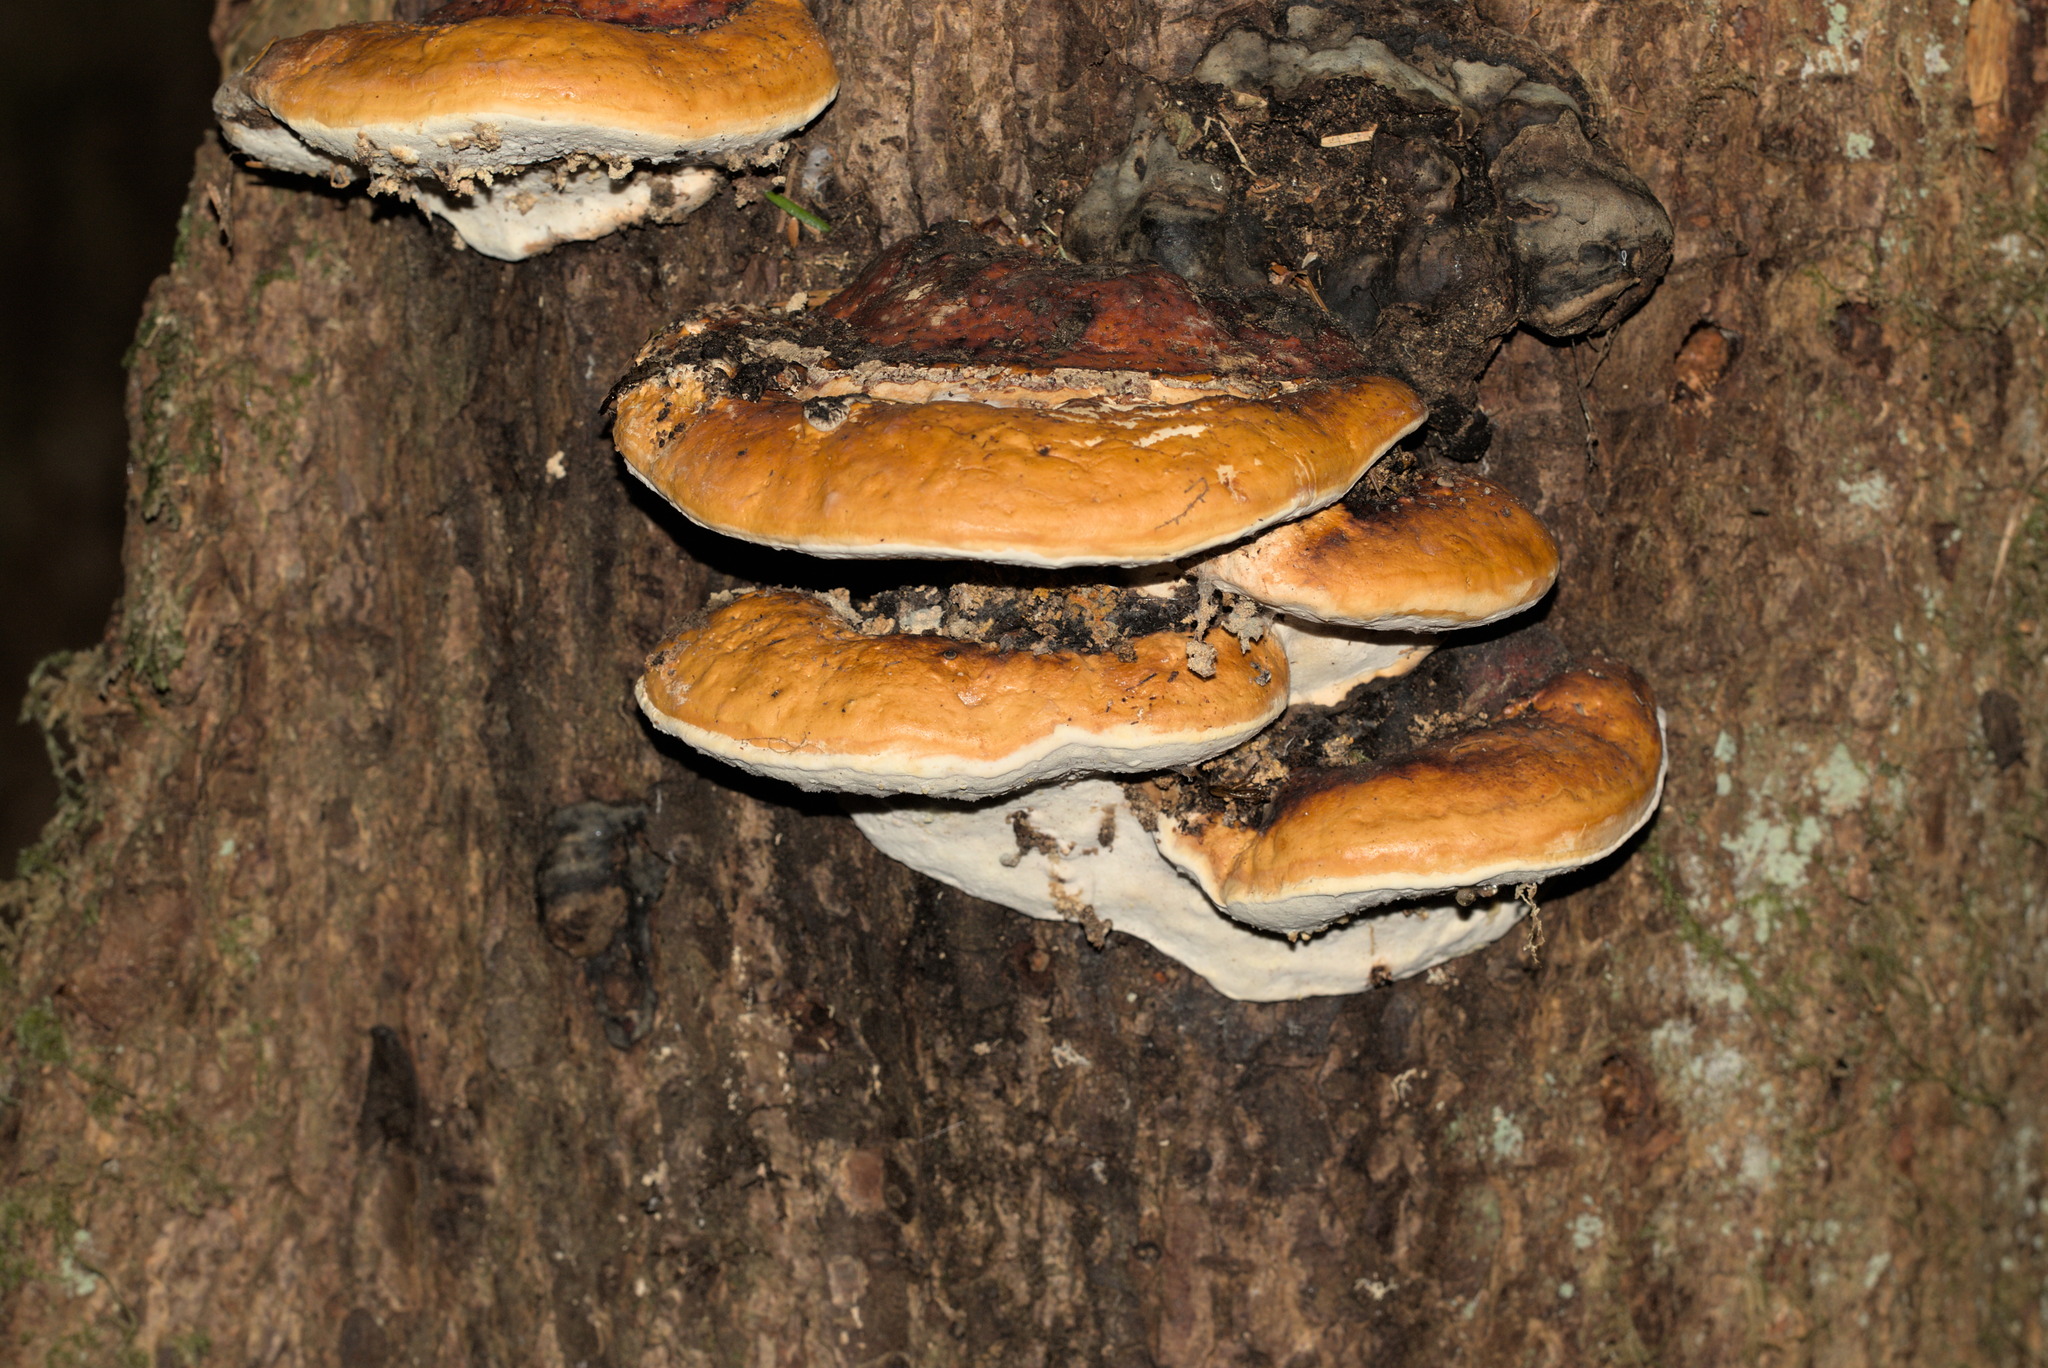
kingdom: Fungi
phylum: Basidiomycota
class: Agaricomycetes
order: Polyporales
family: Fomitopsidaceae
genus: Fomitopsis
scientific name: Fomitopsis mounceae
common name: Northern red belt
